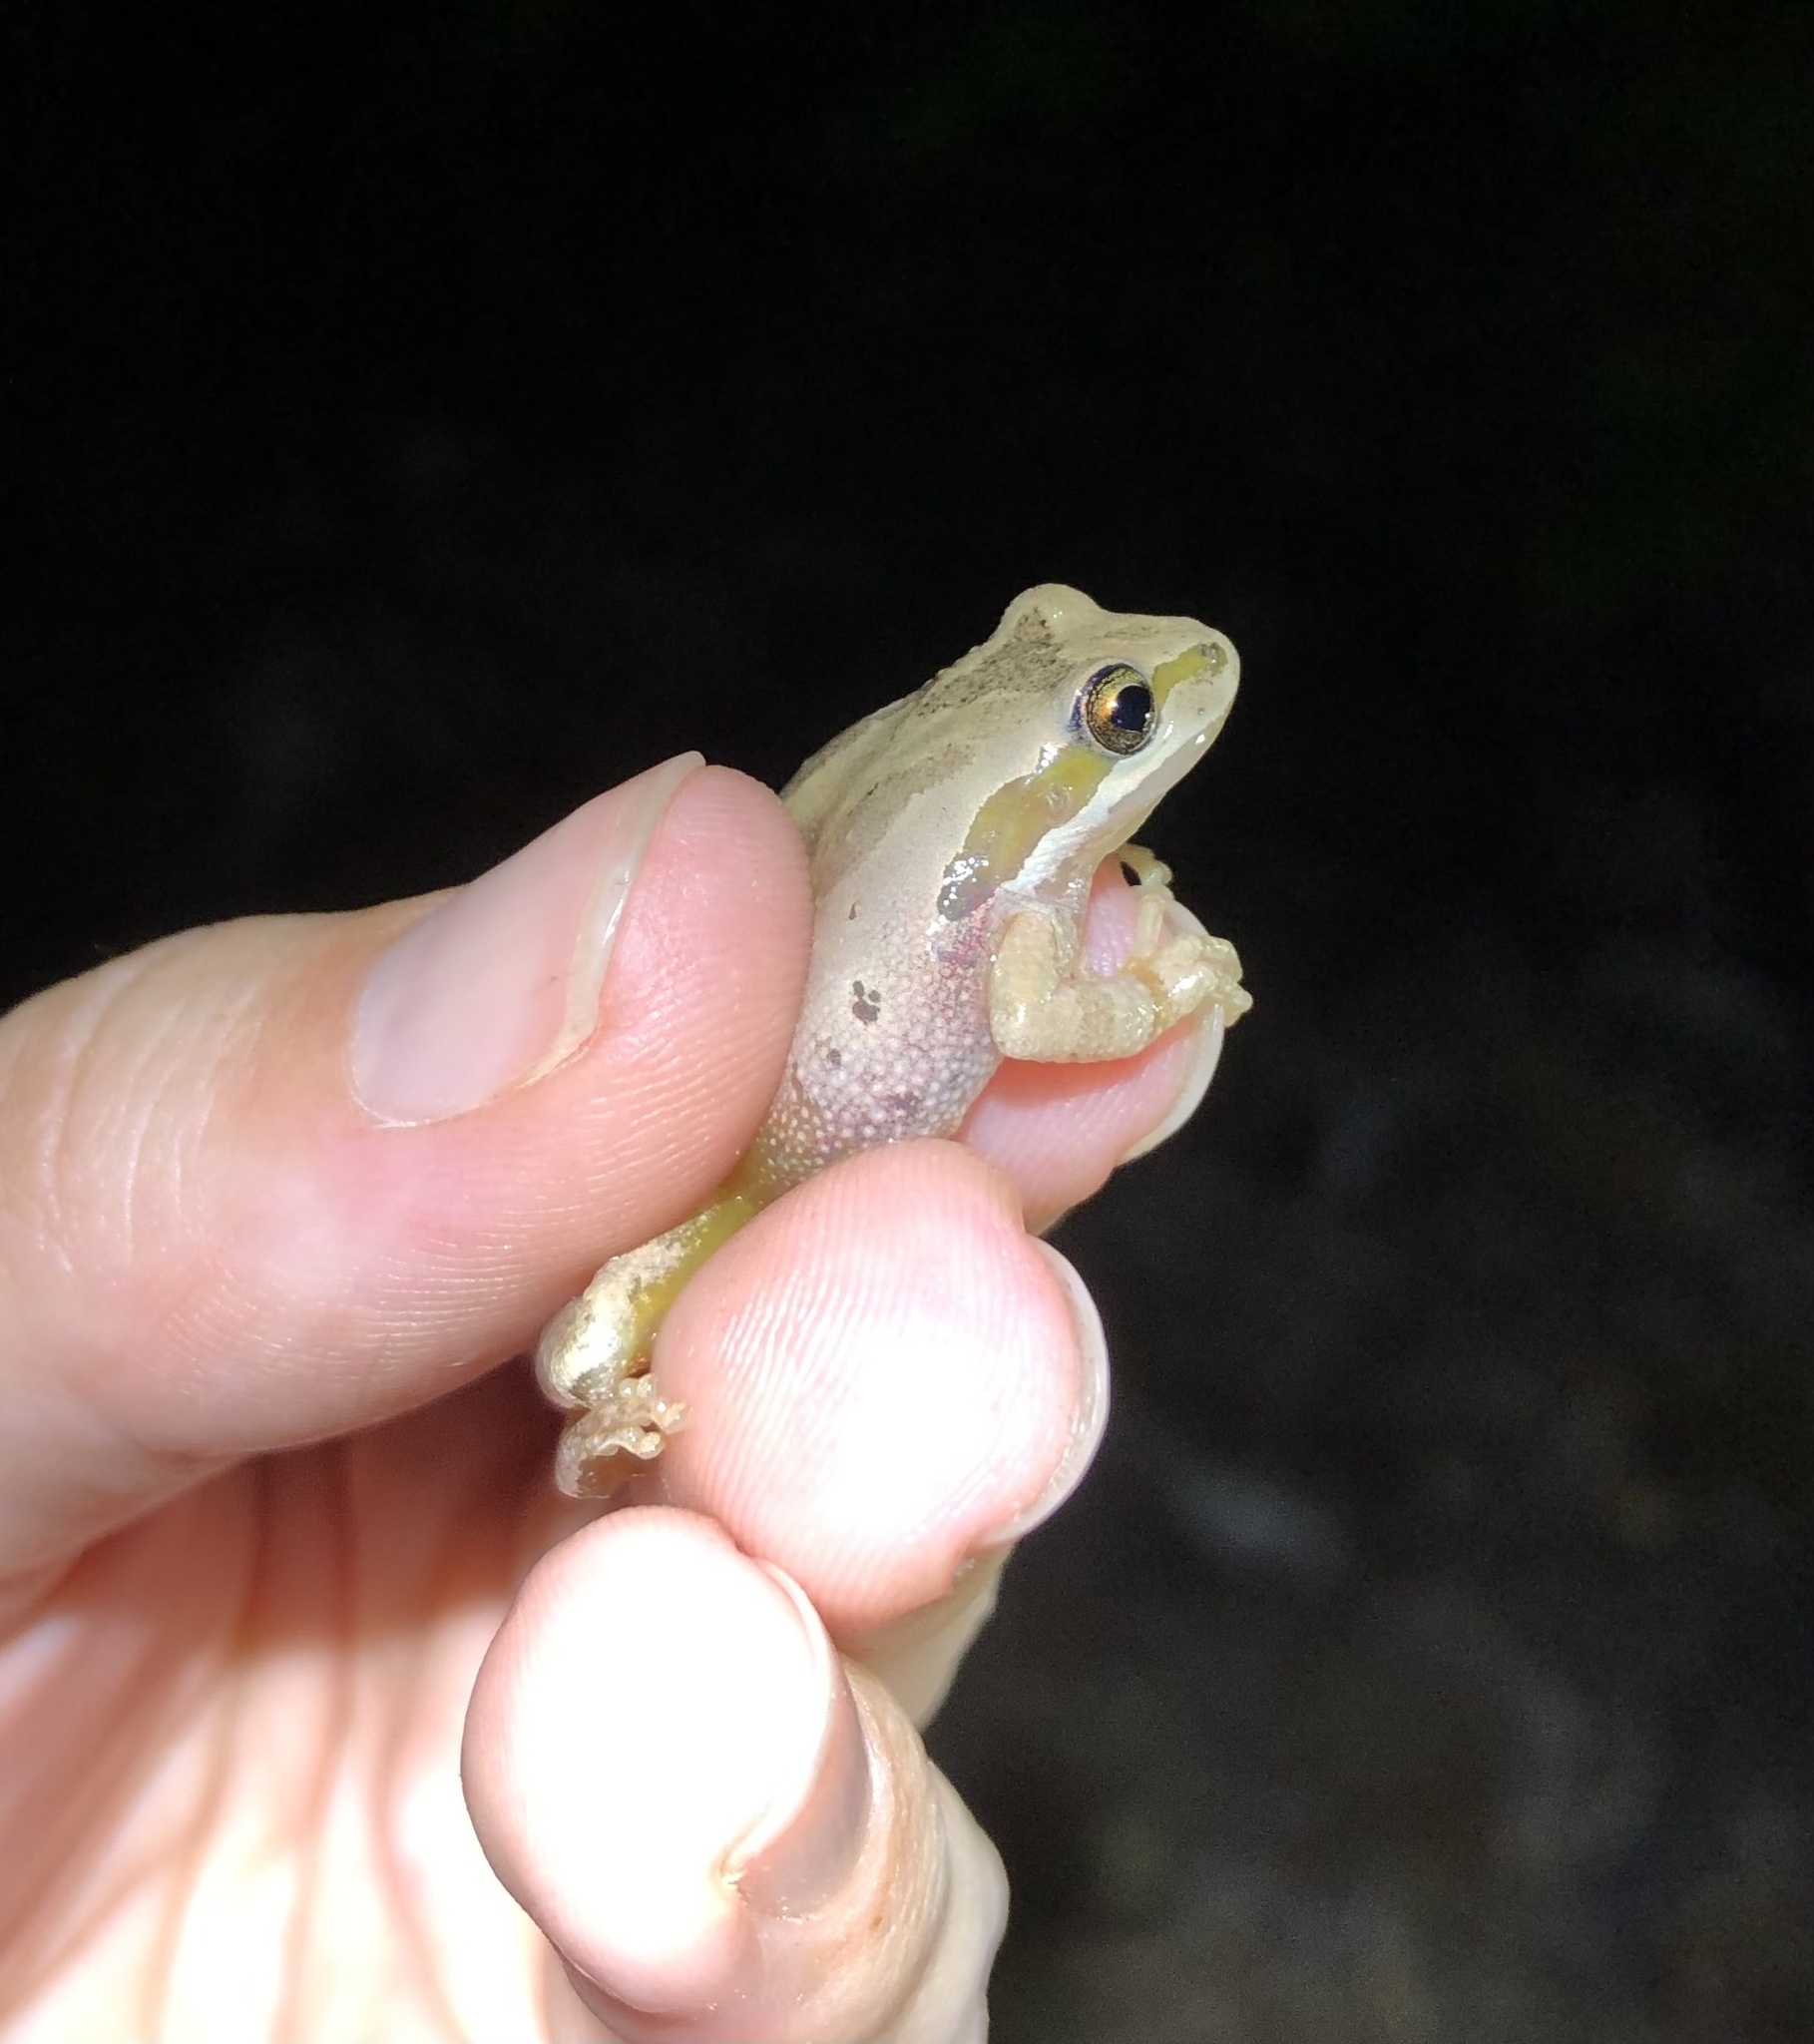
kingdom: Animalia
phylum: Chordata
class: Amphibia
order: Anura
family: Hylidae
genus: Pseudacris
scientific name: Pseudacris regilla
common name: Pacific chorus frog
